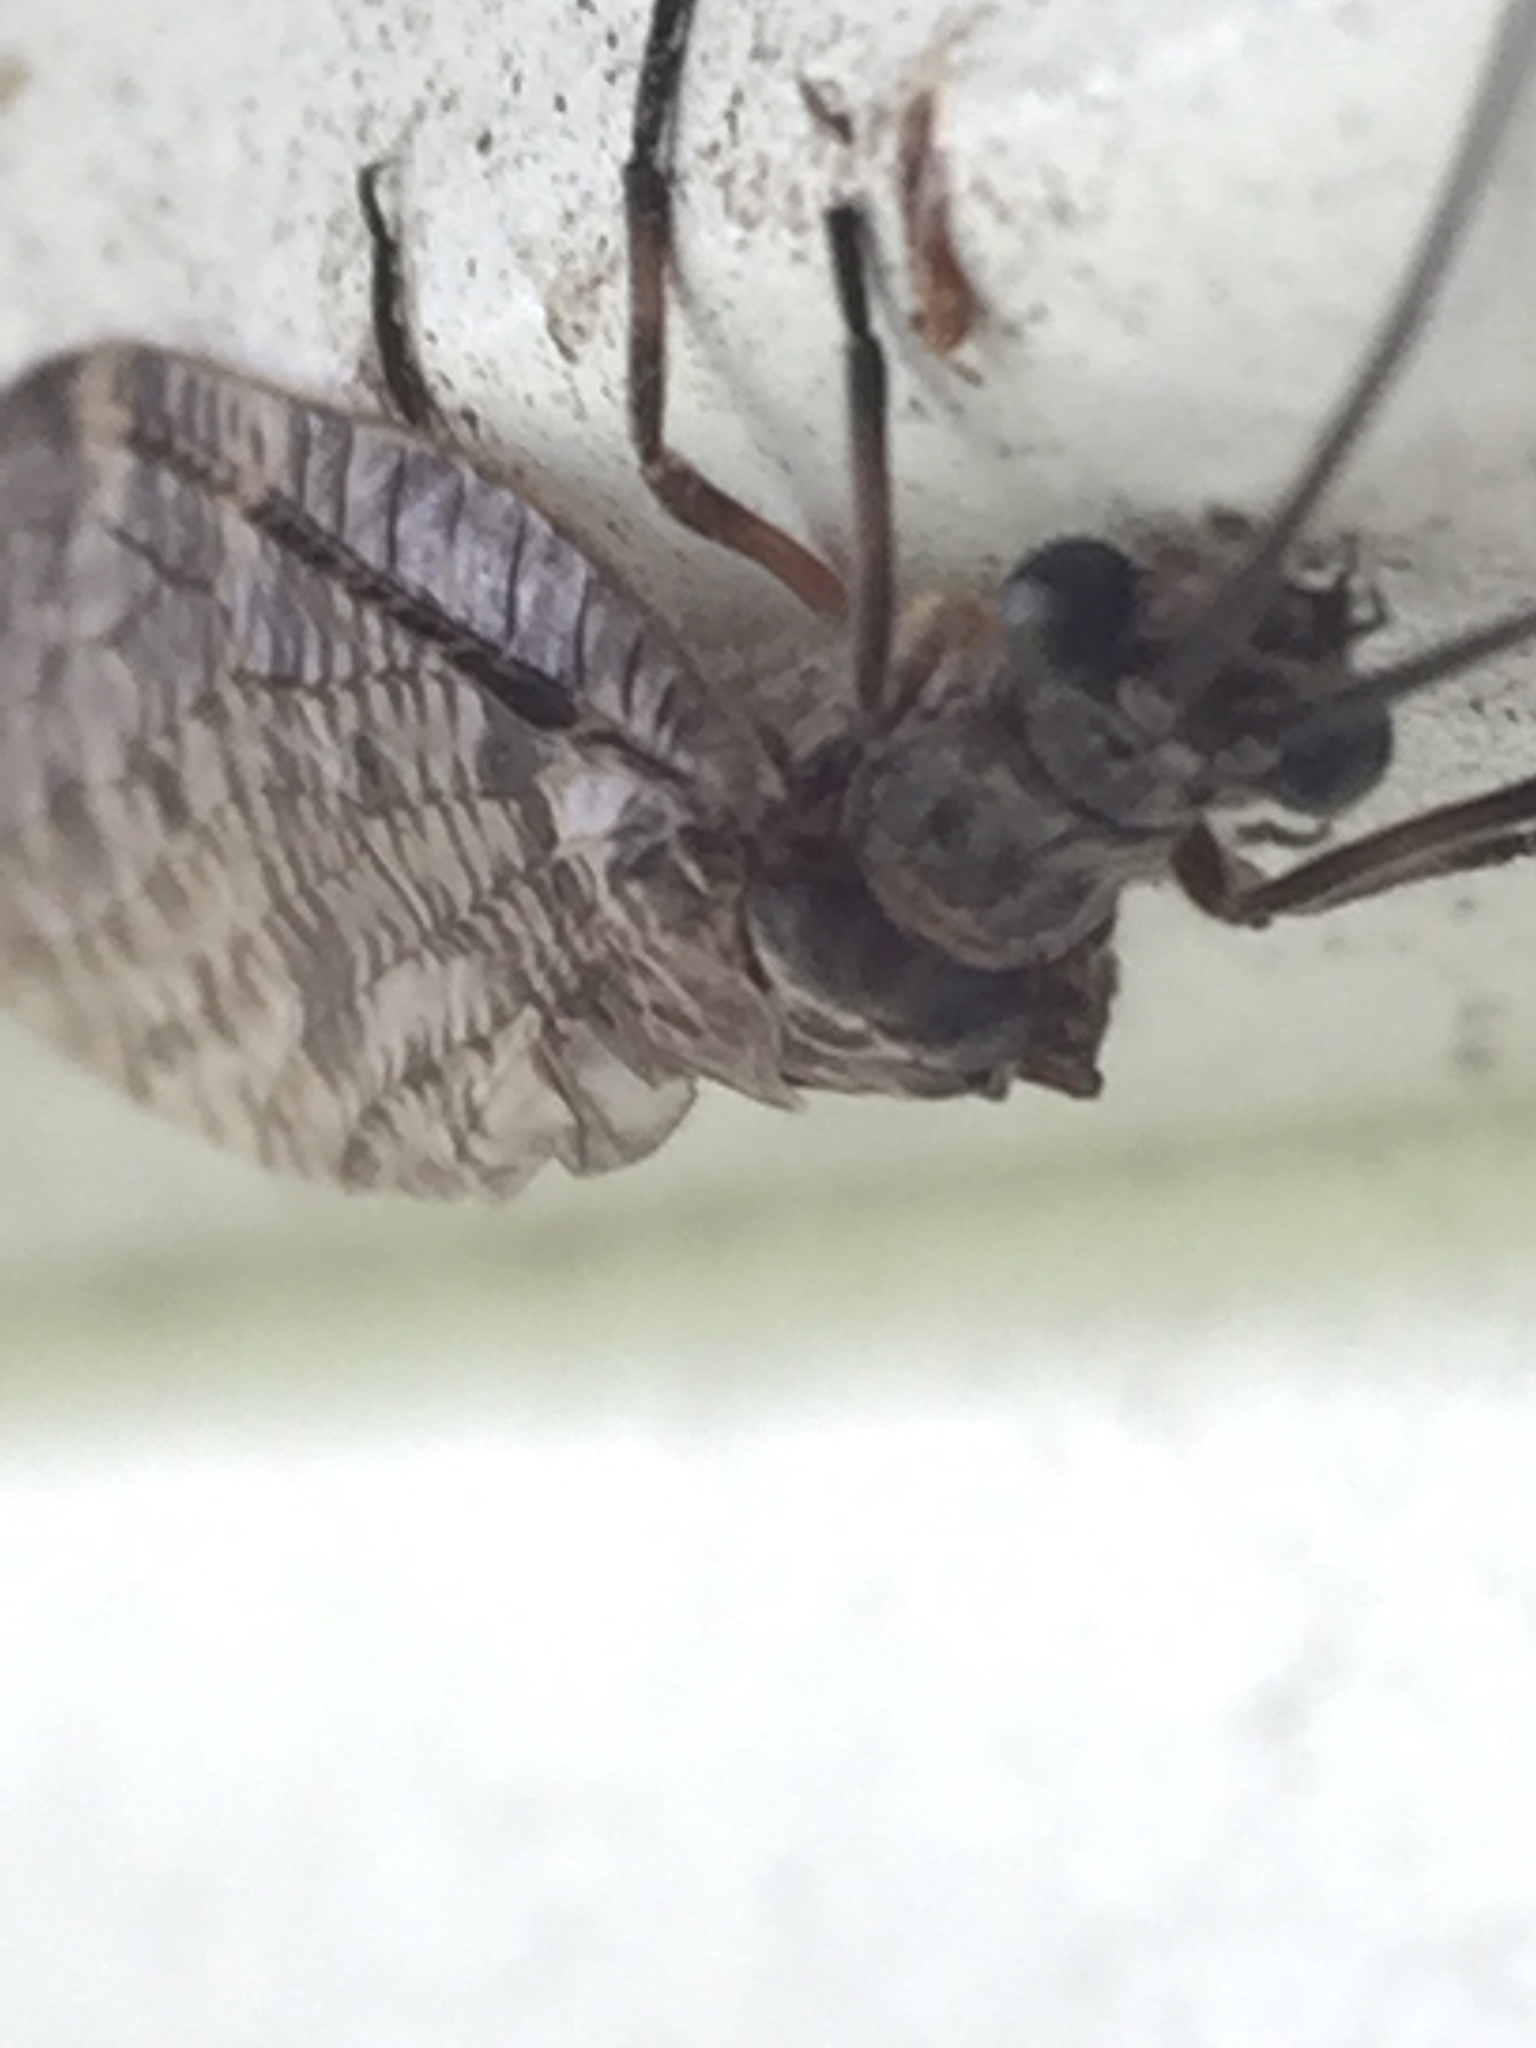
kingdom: Animalia
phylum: Arthropoda
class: Insecta
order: Megaloptera
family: Corydalidae
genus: Archichauliodes
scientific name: Archichauliodes diversus
